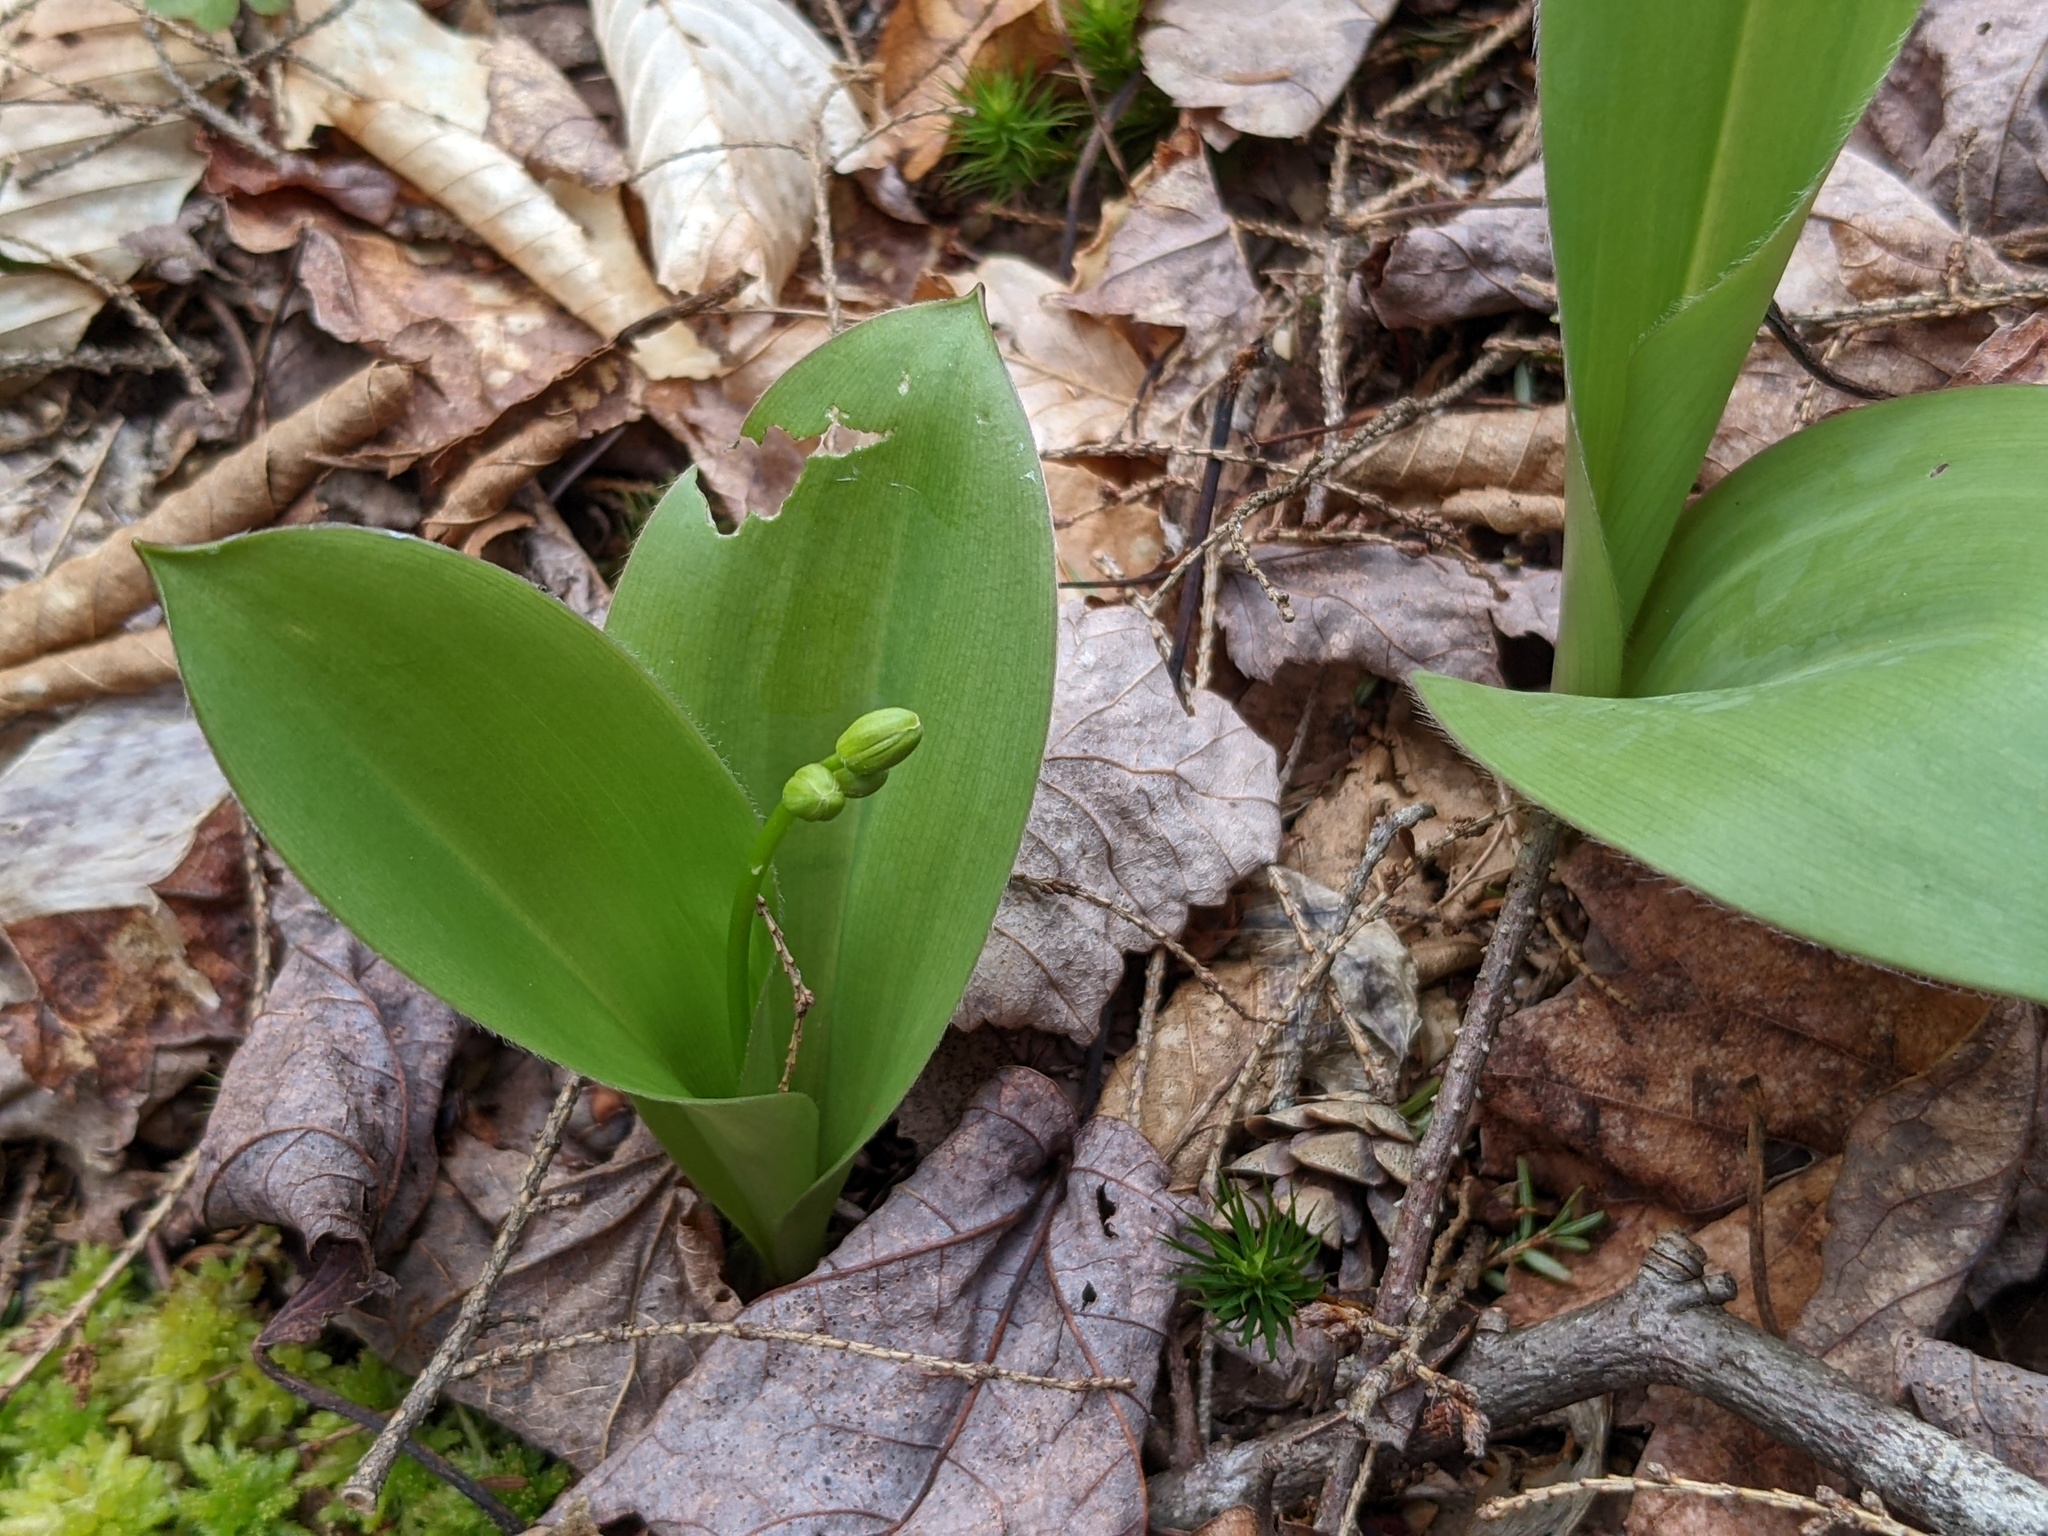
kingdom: Plantae
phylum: Tracheophyta
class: Liliopsida
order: Liliales
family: Liliaceae
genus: Clintonia
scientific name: Clintonia borealis
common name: Yellow clintonia
